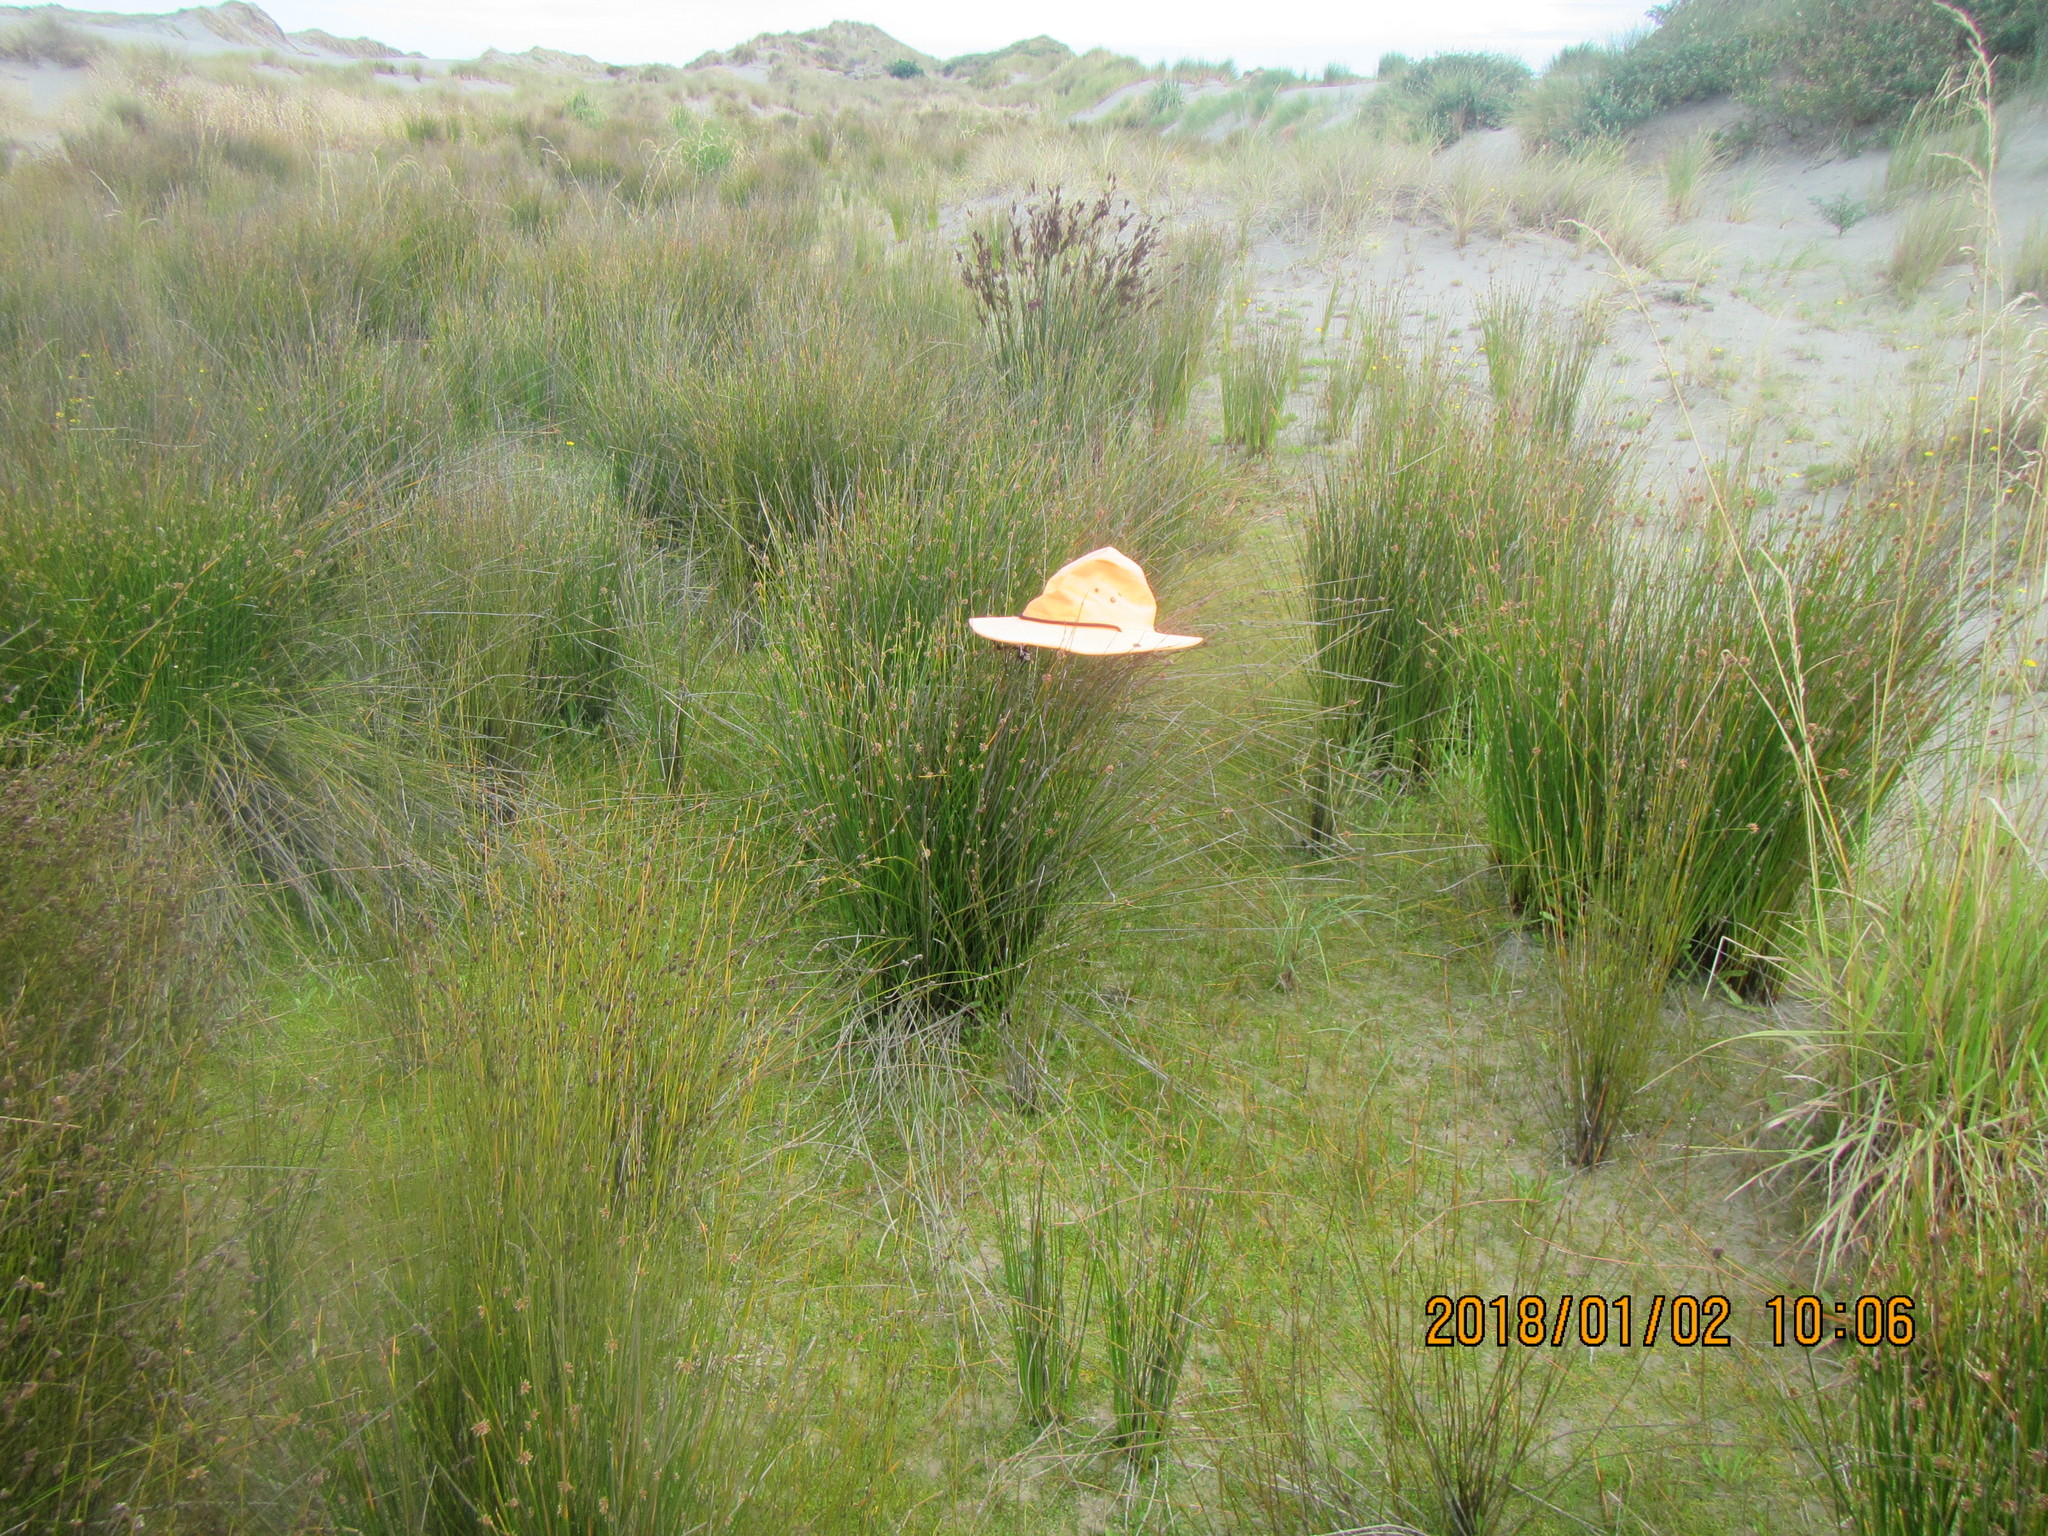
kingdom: Plantae
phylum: Tracheophyta
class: Magnoliopsida
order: Apiales
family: Apiaceae
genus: Lilaeopsis
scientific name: Lilaeopsis novae-zelandiae
